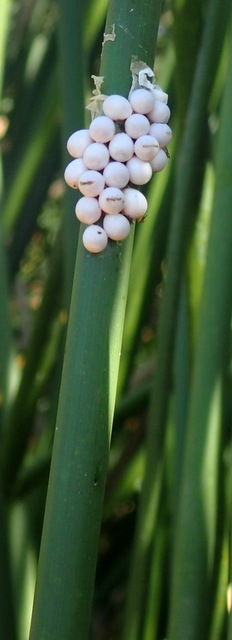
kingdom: Animalia
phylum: Mollusca
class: Gastropoda
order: Architaenioglossa
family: Ampullariidae
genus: Pomacea
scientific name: Pomacea paludosa
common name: Florida applesnail
